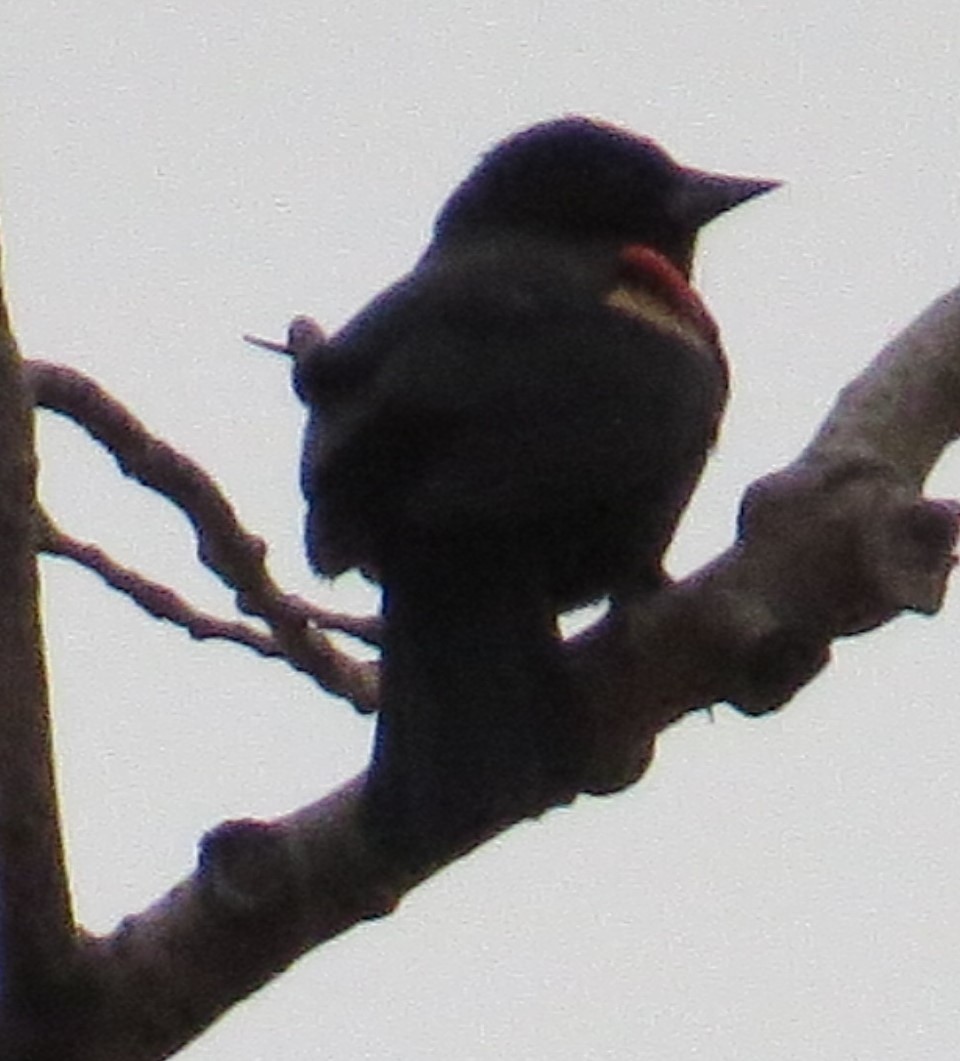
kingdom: Animalia
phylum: Chordata
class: Aves
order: Passeriformes
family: Icteridae
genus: Agelaius
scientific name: Agelaius phoeniceus
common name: Red-winged blackbird
